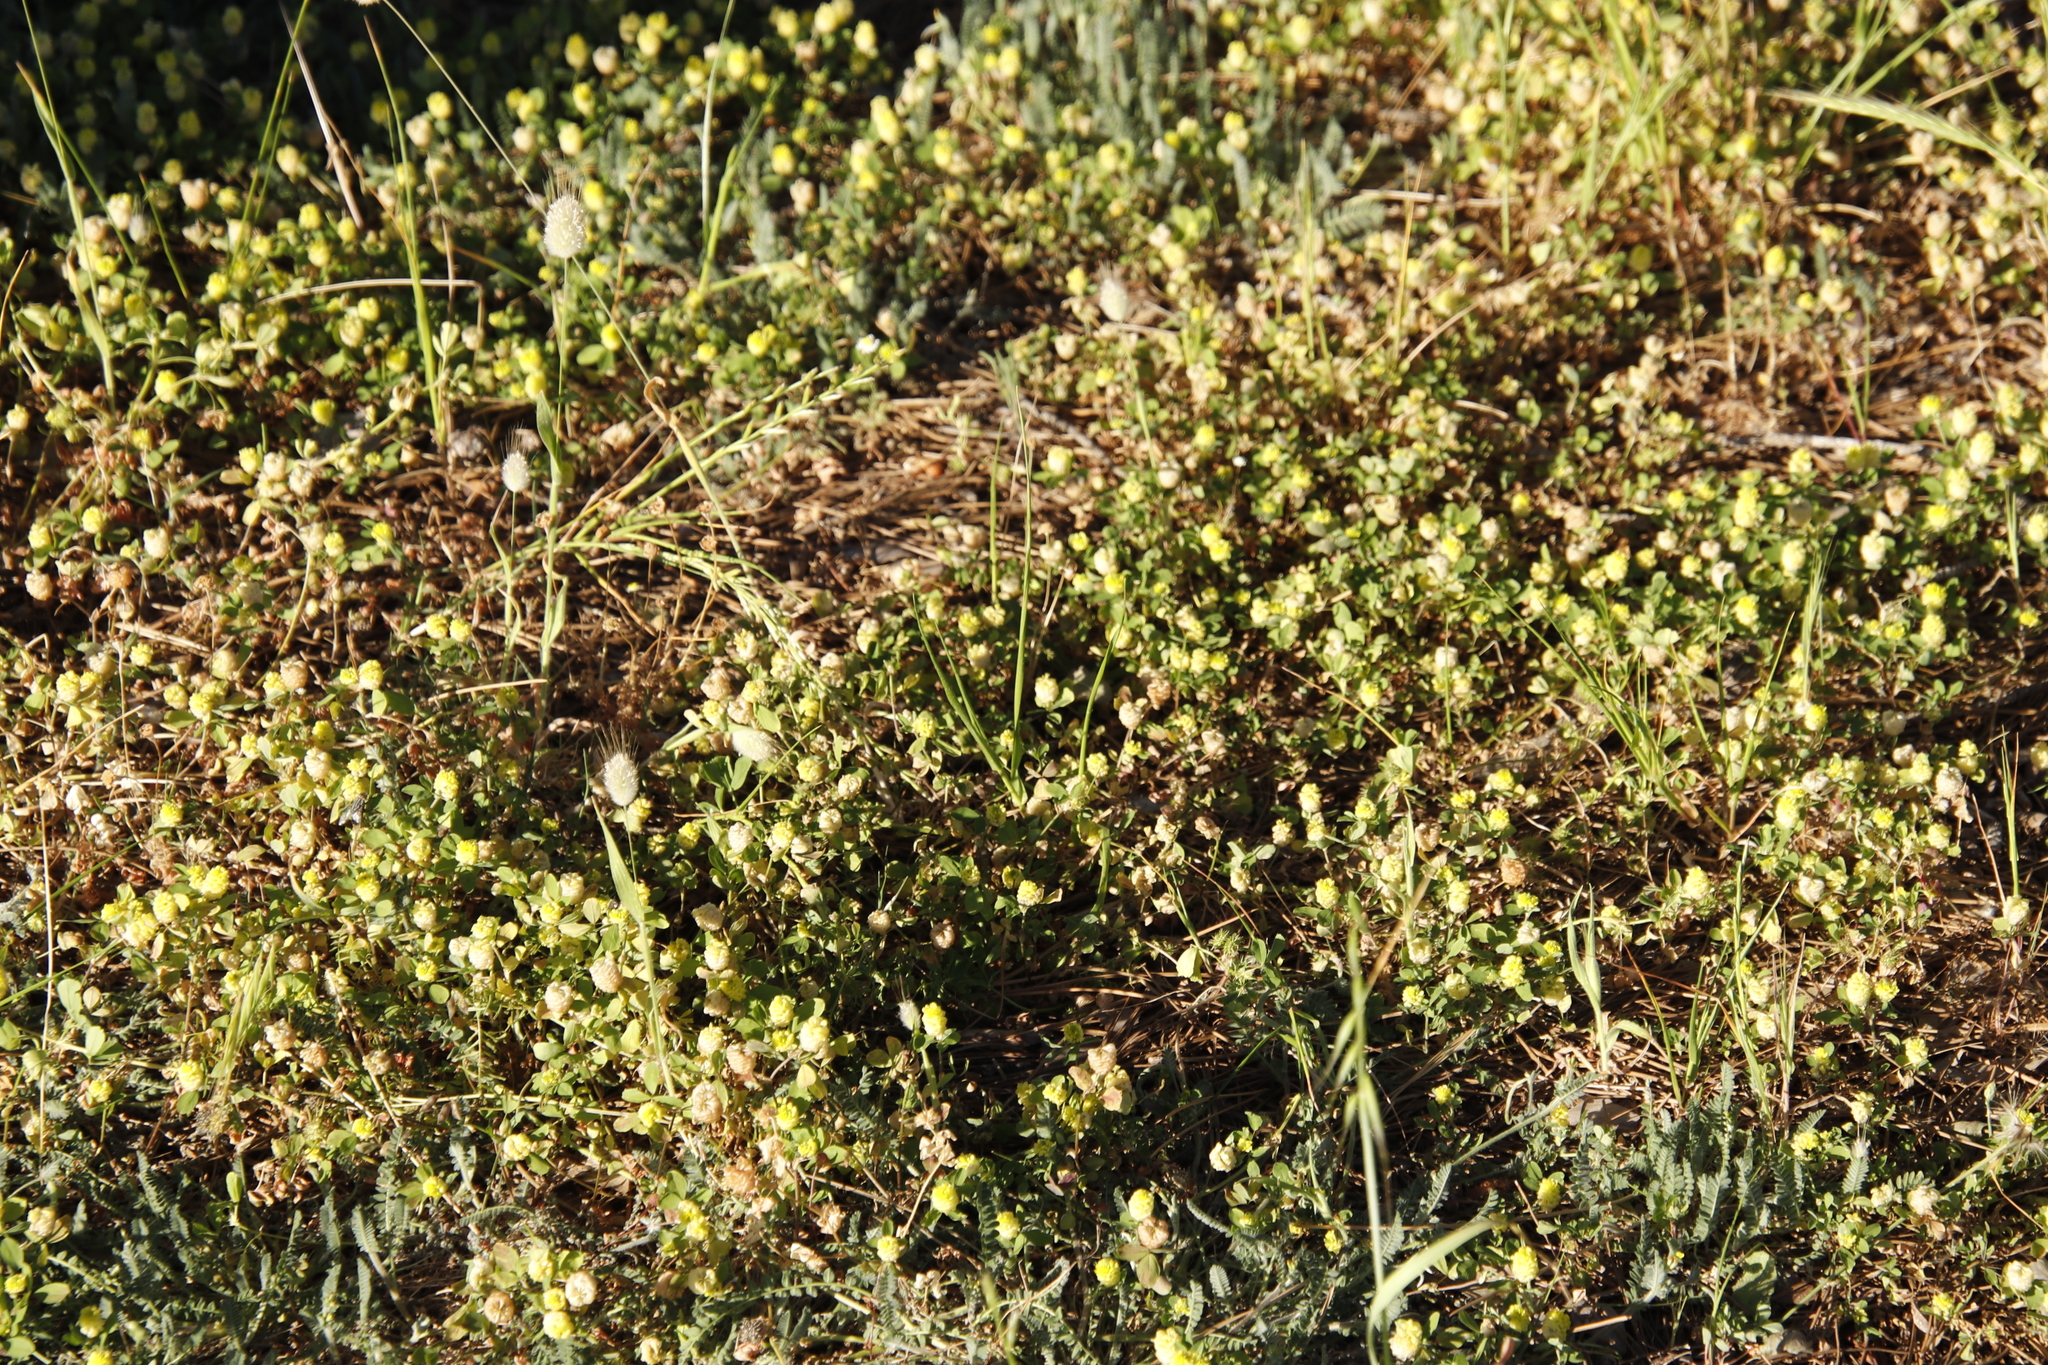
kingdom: Plantae
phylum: Tracheophyta
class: Magnoliopsida
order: Fabales
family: Fabaceae
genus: Trifolium
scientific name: Trifolium campestre
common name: Field clover
